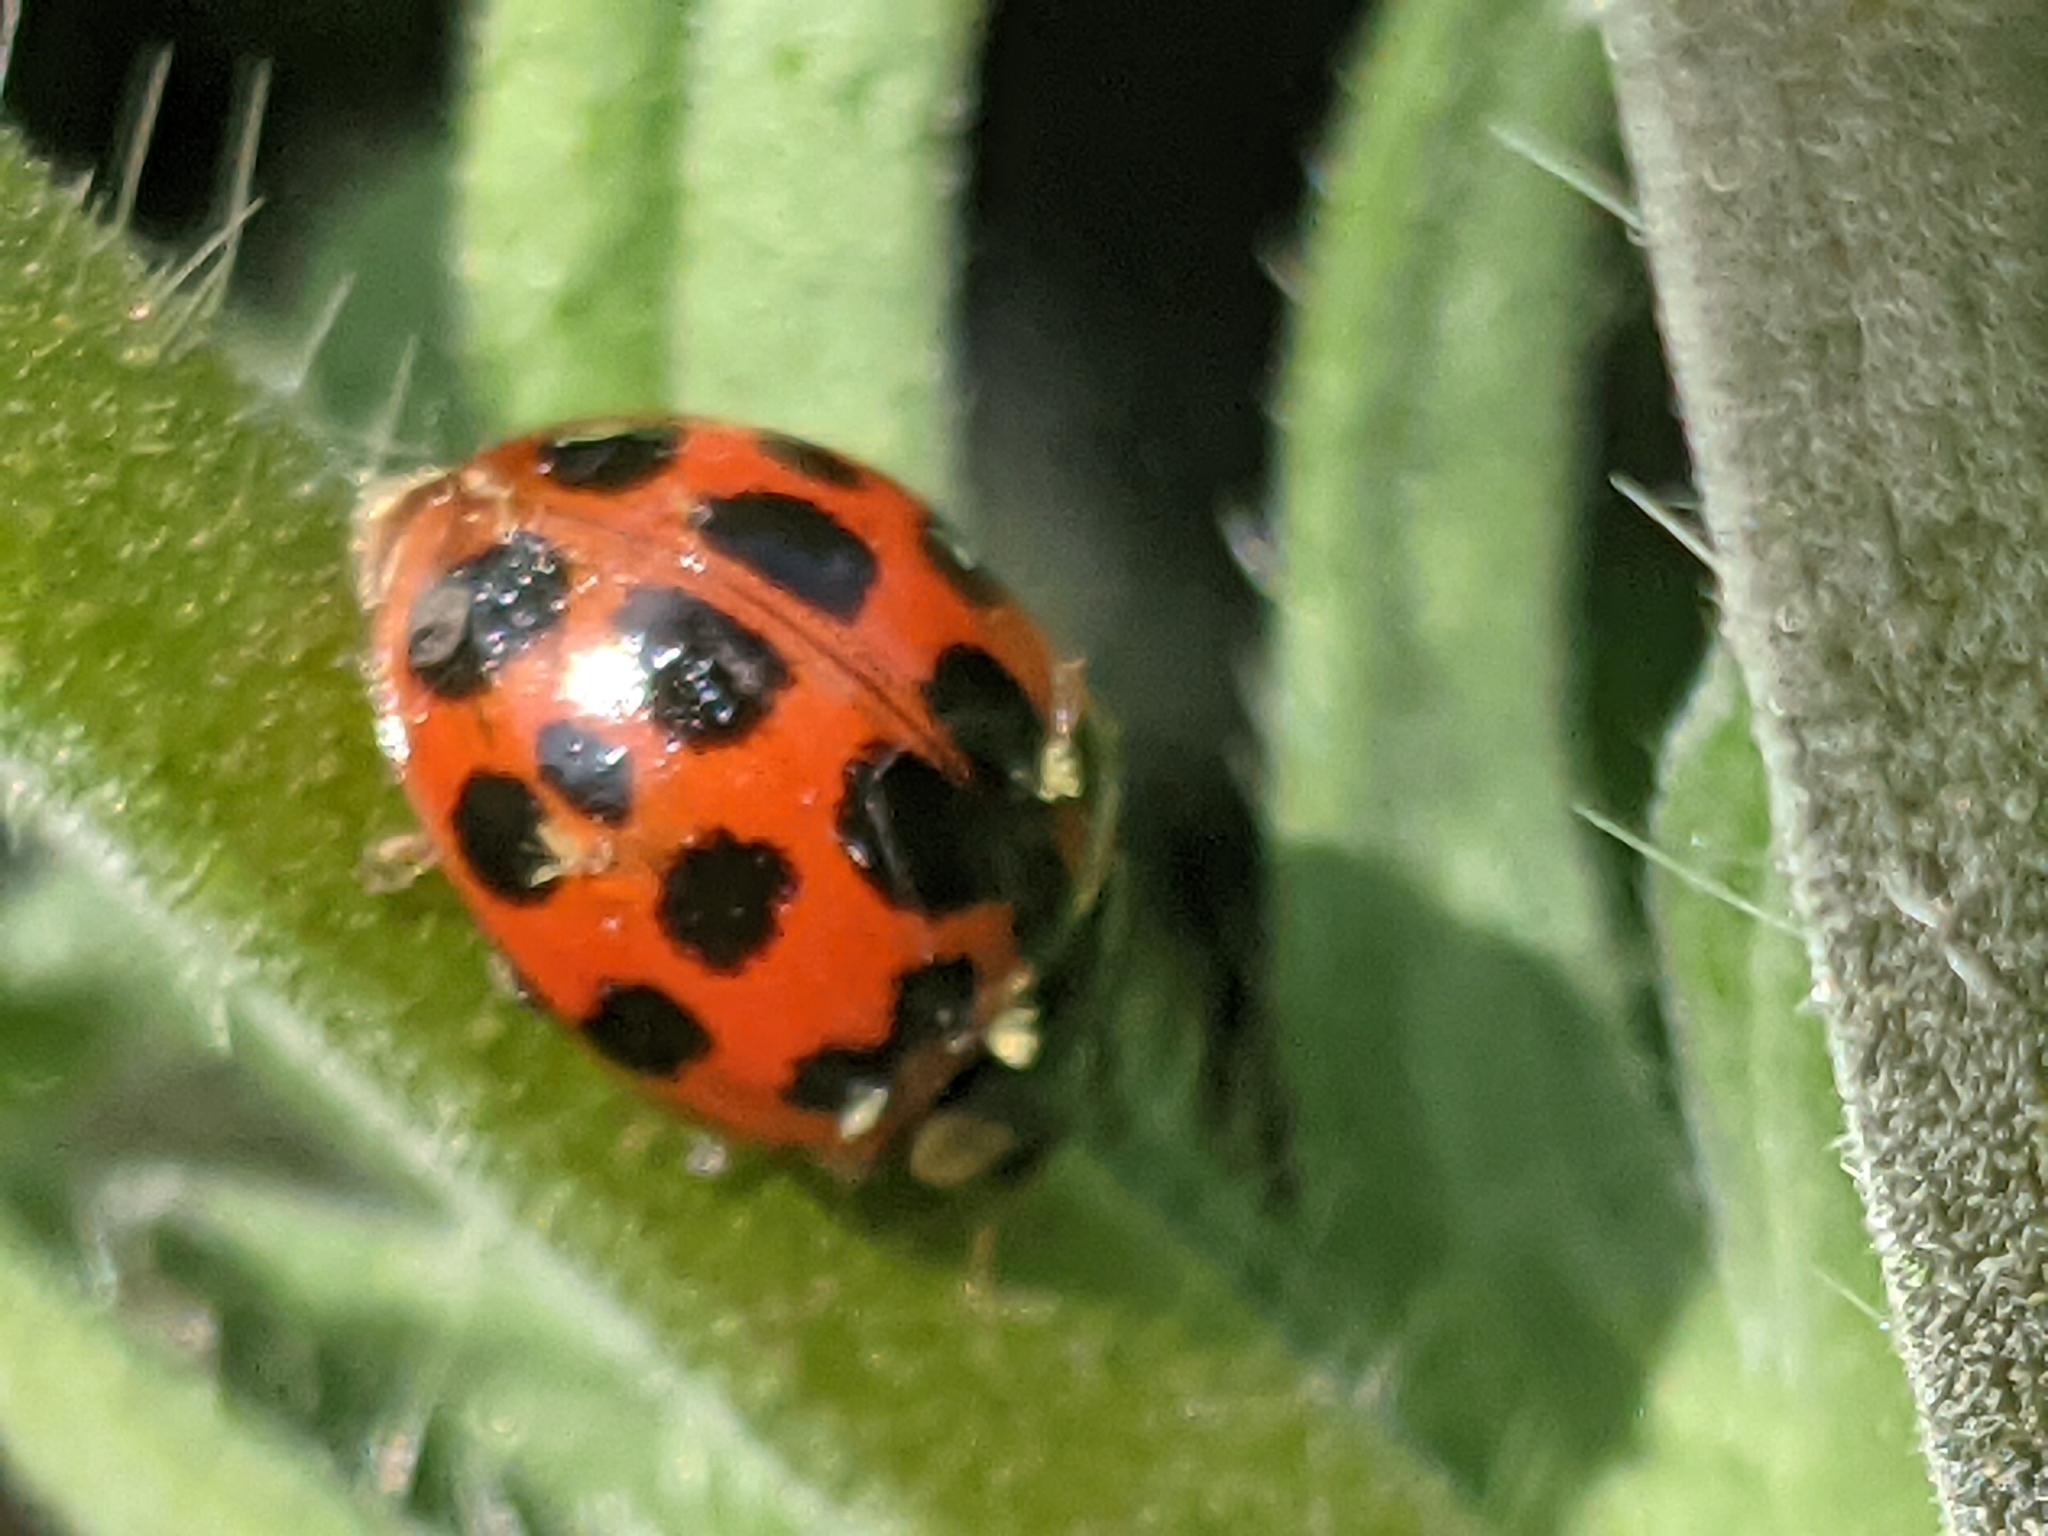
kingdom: Fungi
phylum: Ascomycota
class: Laboulbeniomycetes
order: Laboulbeniales
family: Laboulbeniaceae
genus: Hesperomyces
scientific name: Hesperomyces harmoniae
